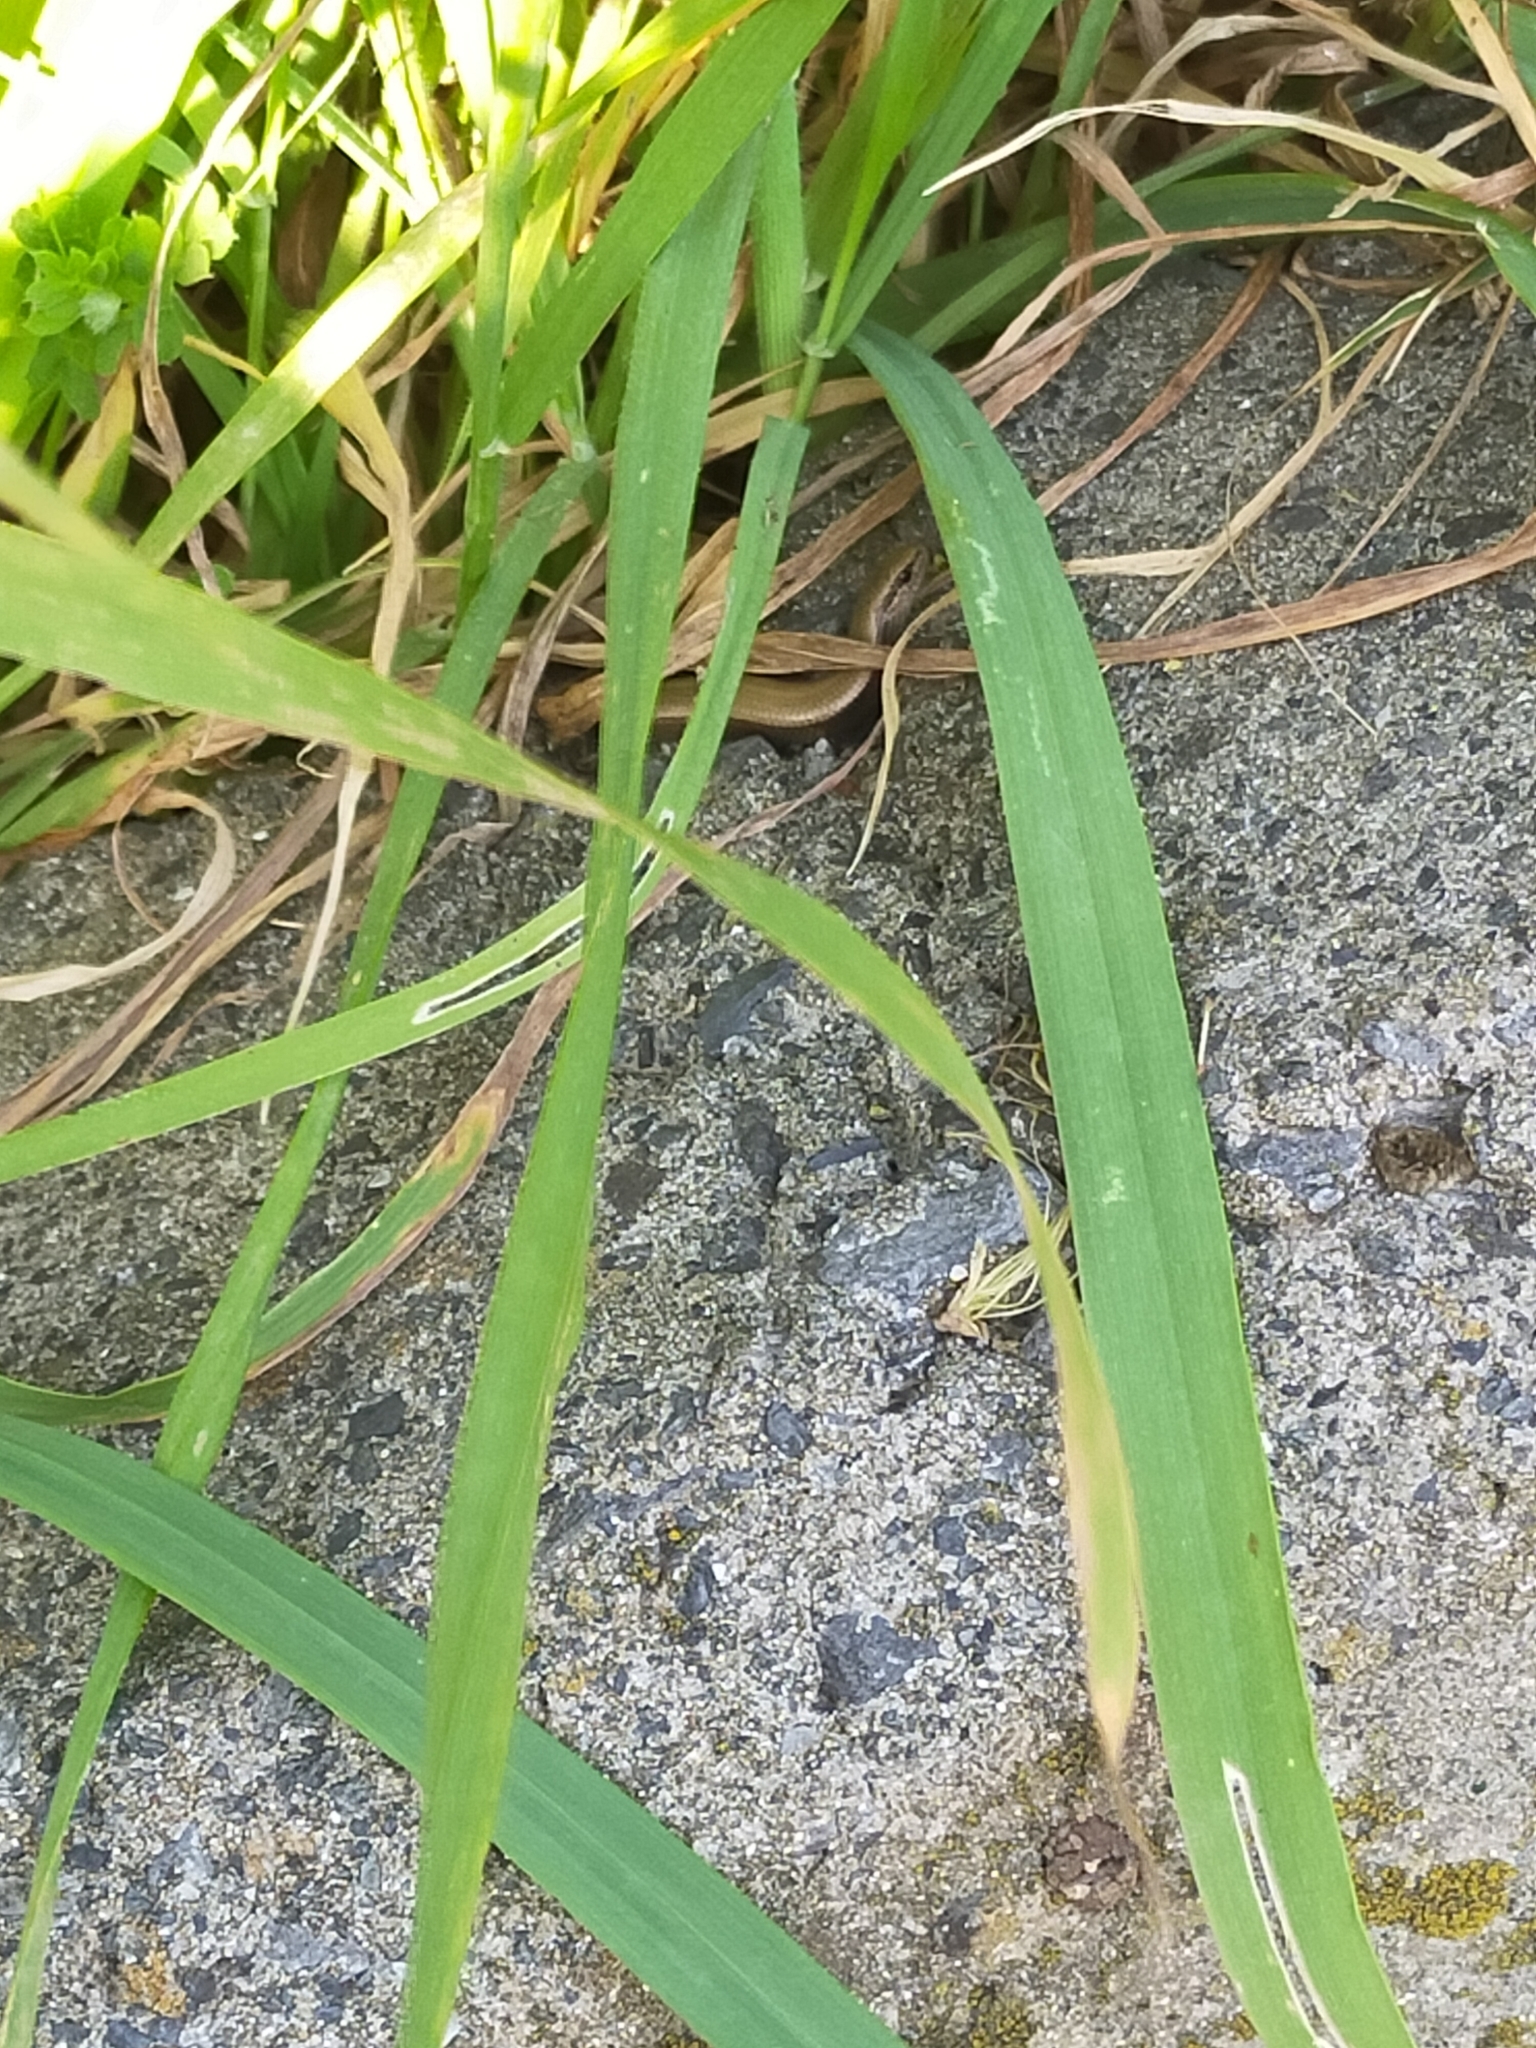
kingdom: Animalia
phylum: Chordata
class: Squamata
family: Scincidae
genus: Ablepharus
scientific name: Ablepharus kitaibelii
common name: Juniper skink
